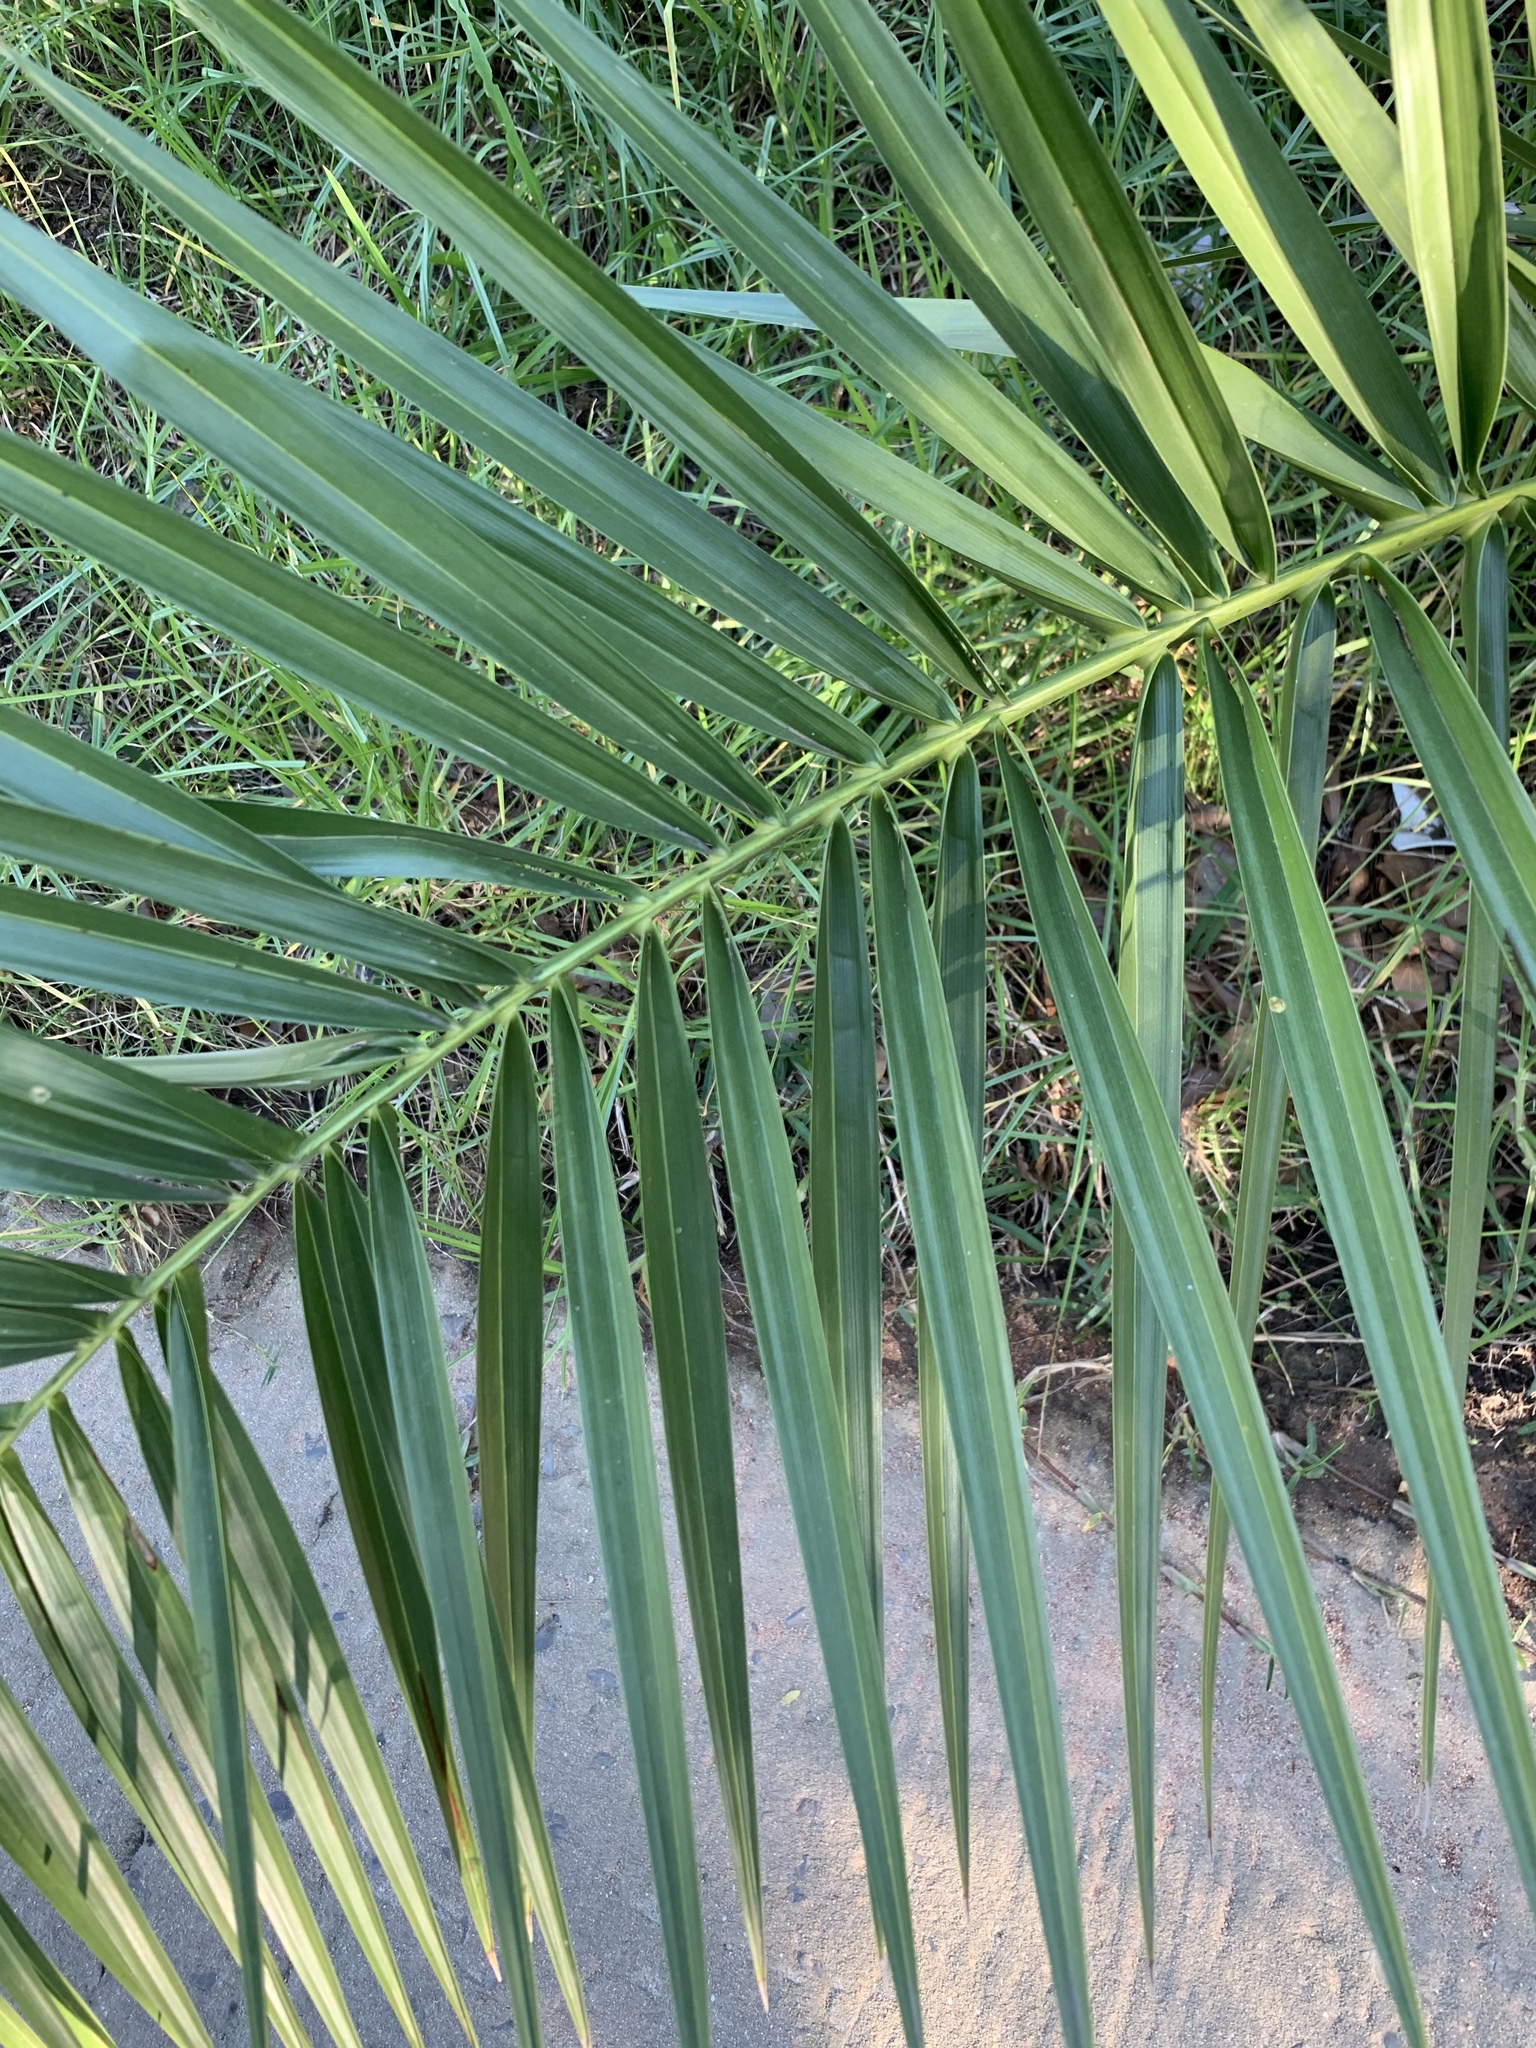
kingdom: Plantae
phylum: Tracheophyta
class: Liliopsida
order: Arecales
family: Arecaceae
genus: Phoenix
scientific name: Phoenix canariensis
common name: Canary island date palm
